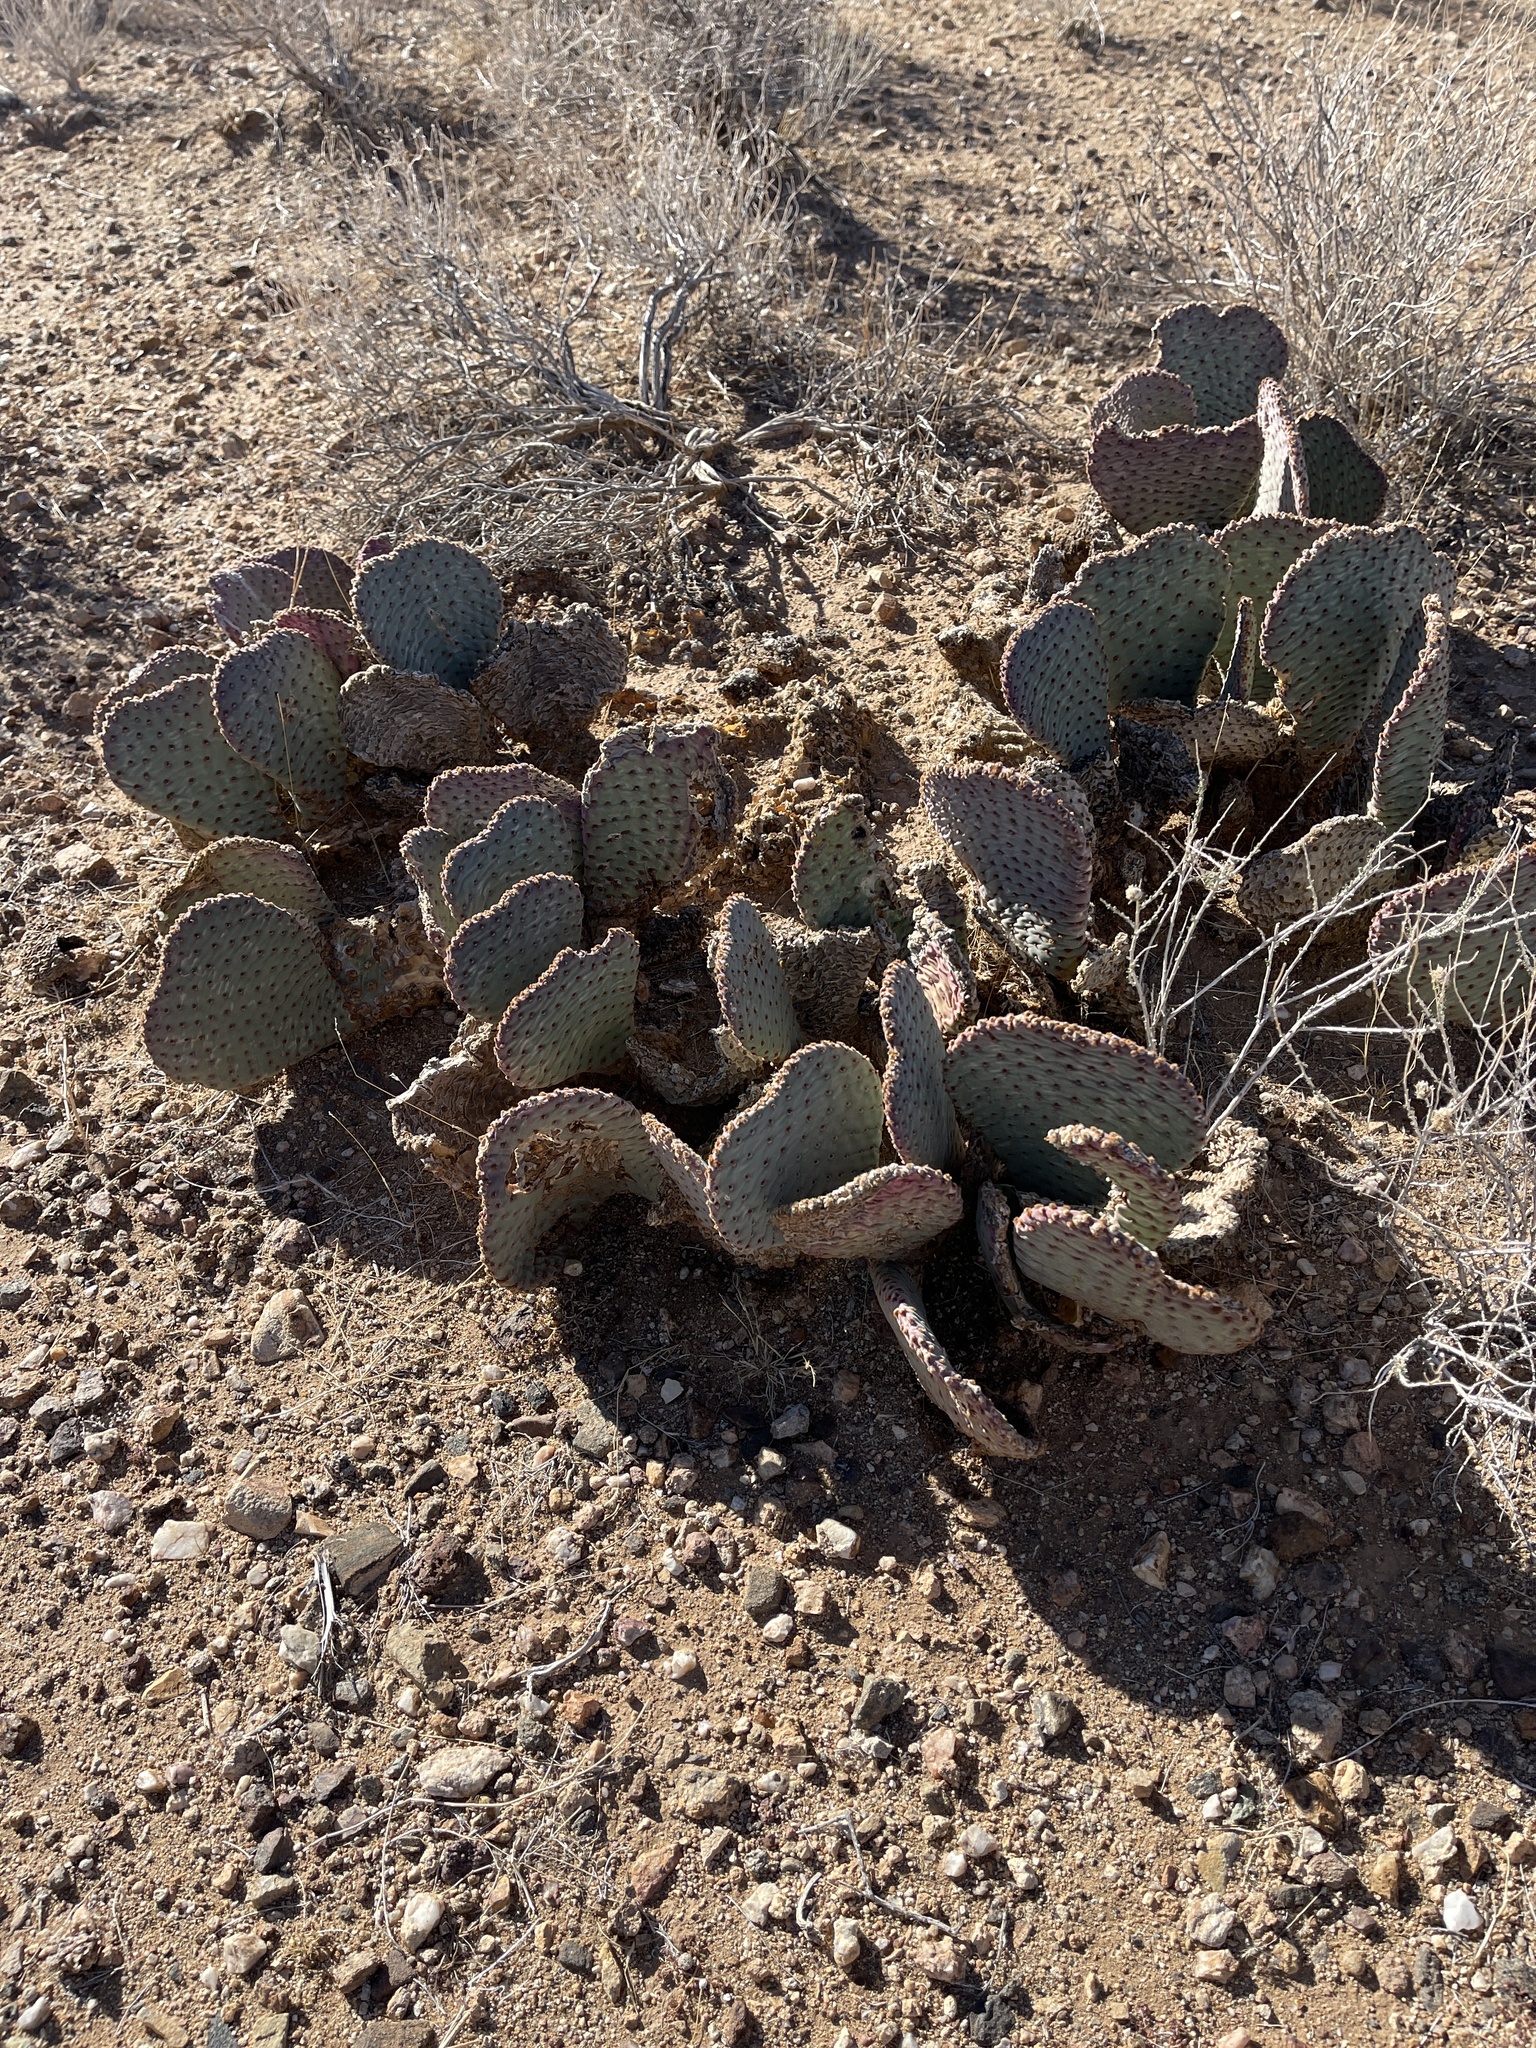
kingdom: Plantae
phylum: Tracheophyta
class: Magnoliopsida
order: Caryophyllales
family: Cactaceae
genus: Opuntia
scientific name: Opuntia basilaris
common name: Beavertail prickly-pear
